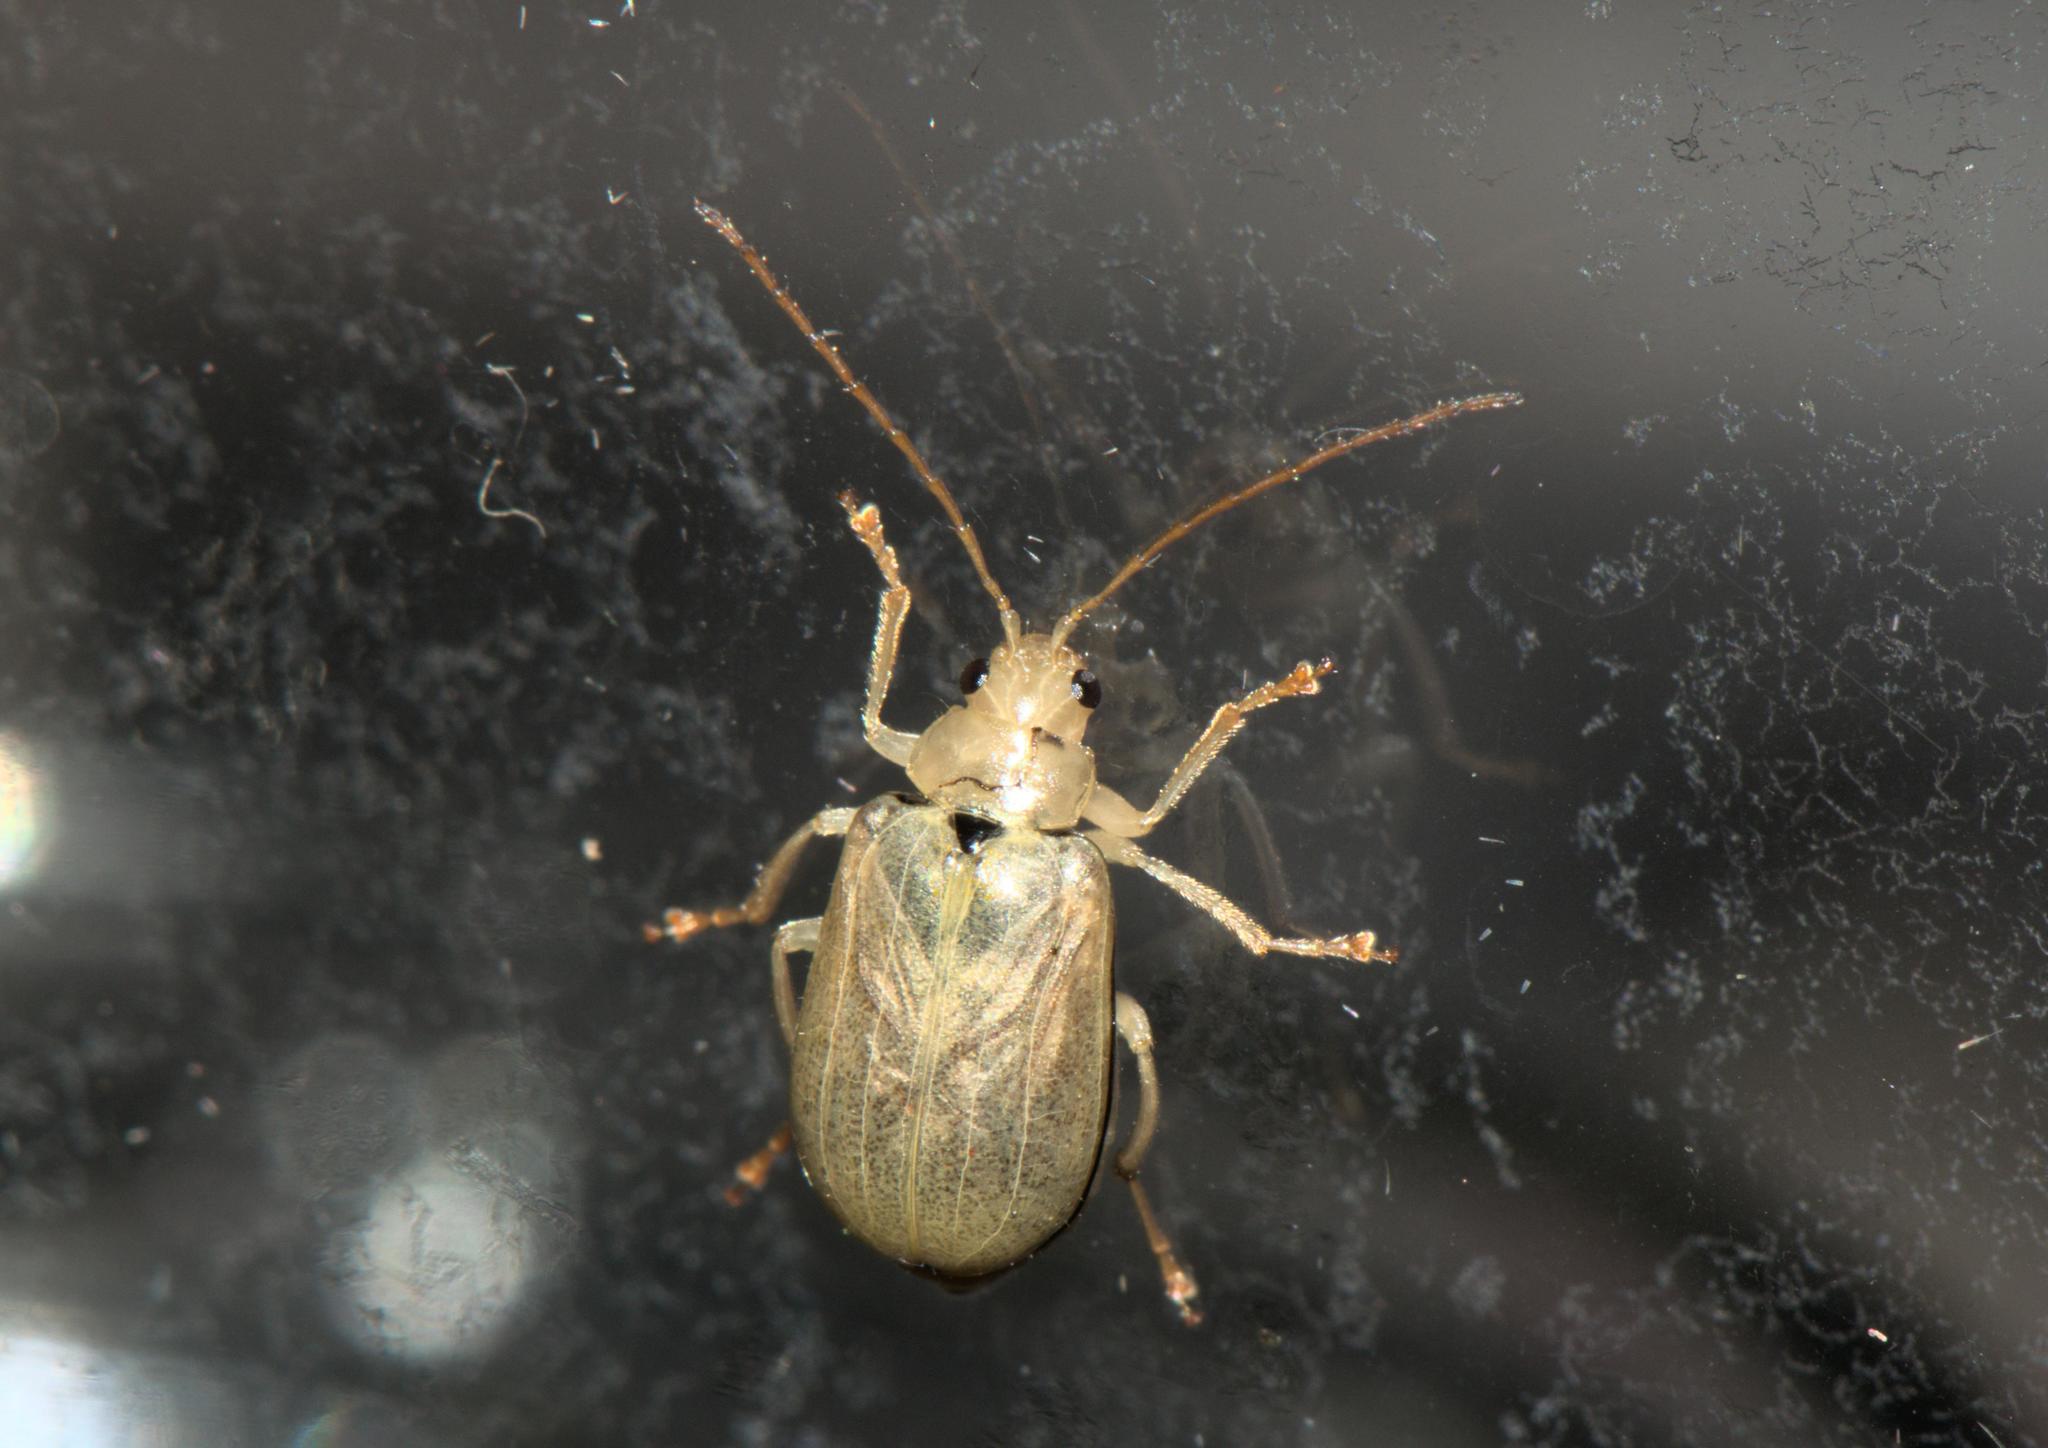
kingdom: Animalia
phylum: Arthropoda
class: Insecta
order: Coleoptera
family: Chrysomelidae
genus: Macrima
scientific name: Macrima
